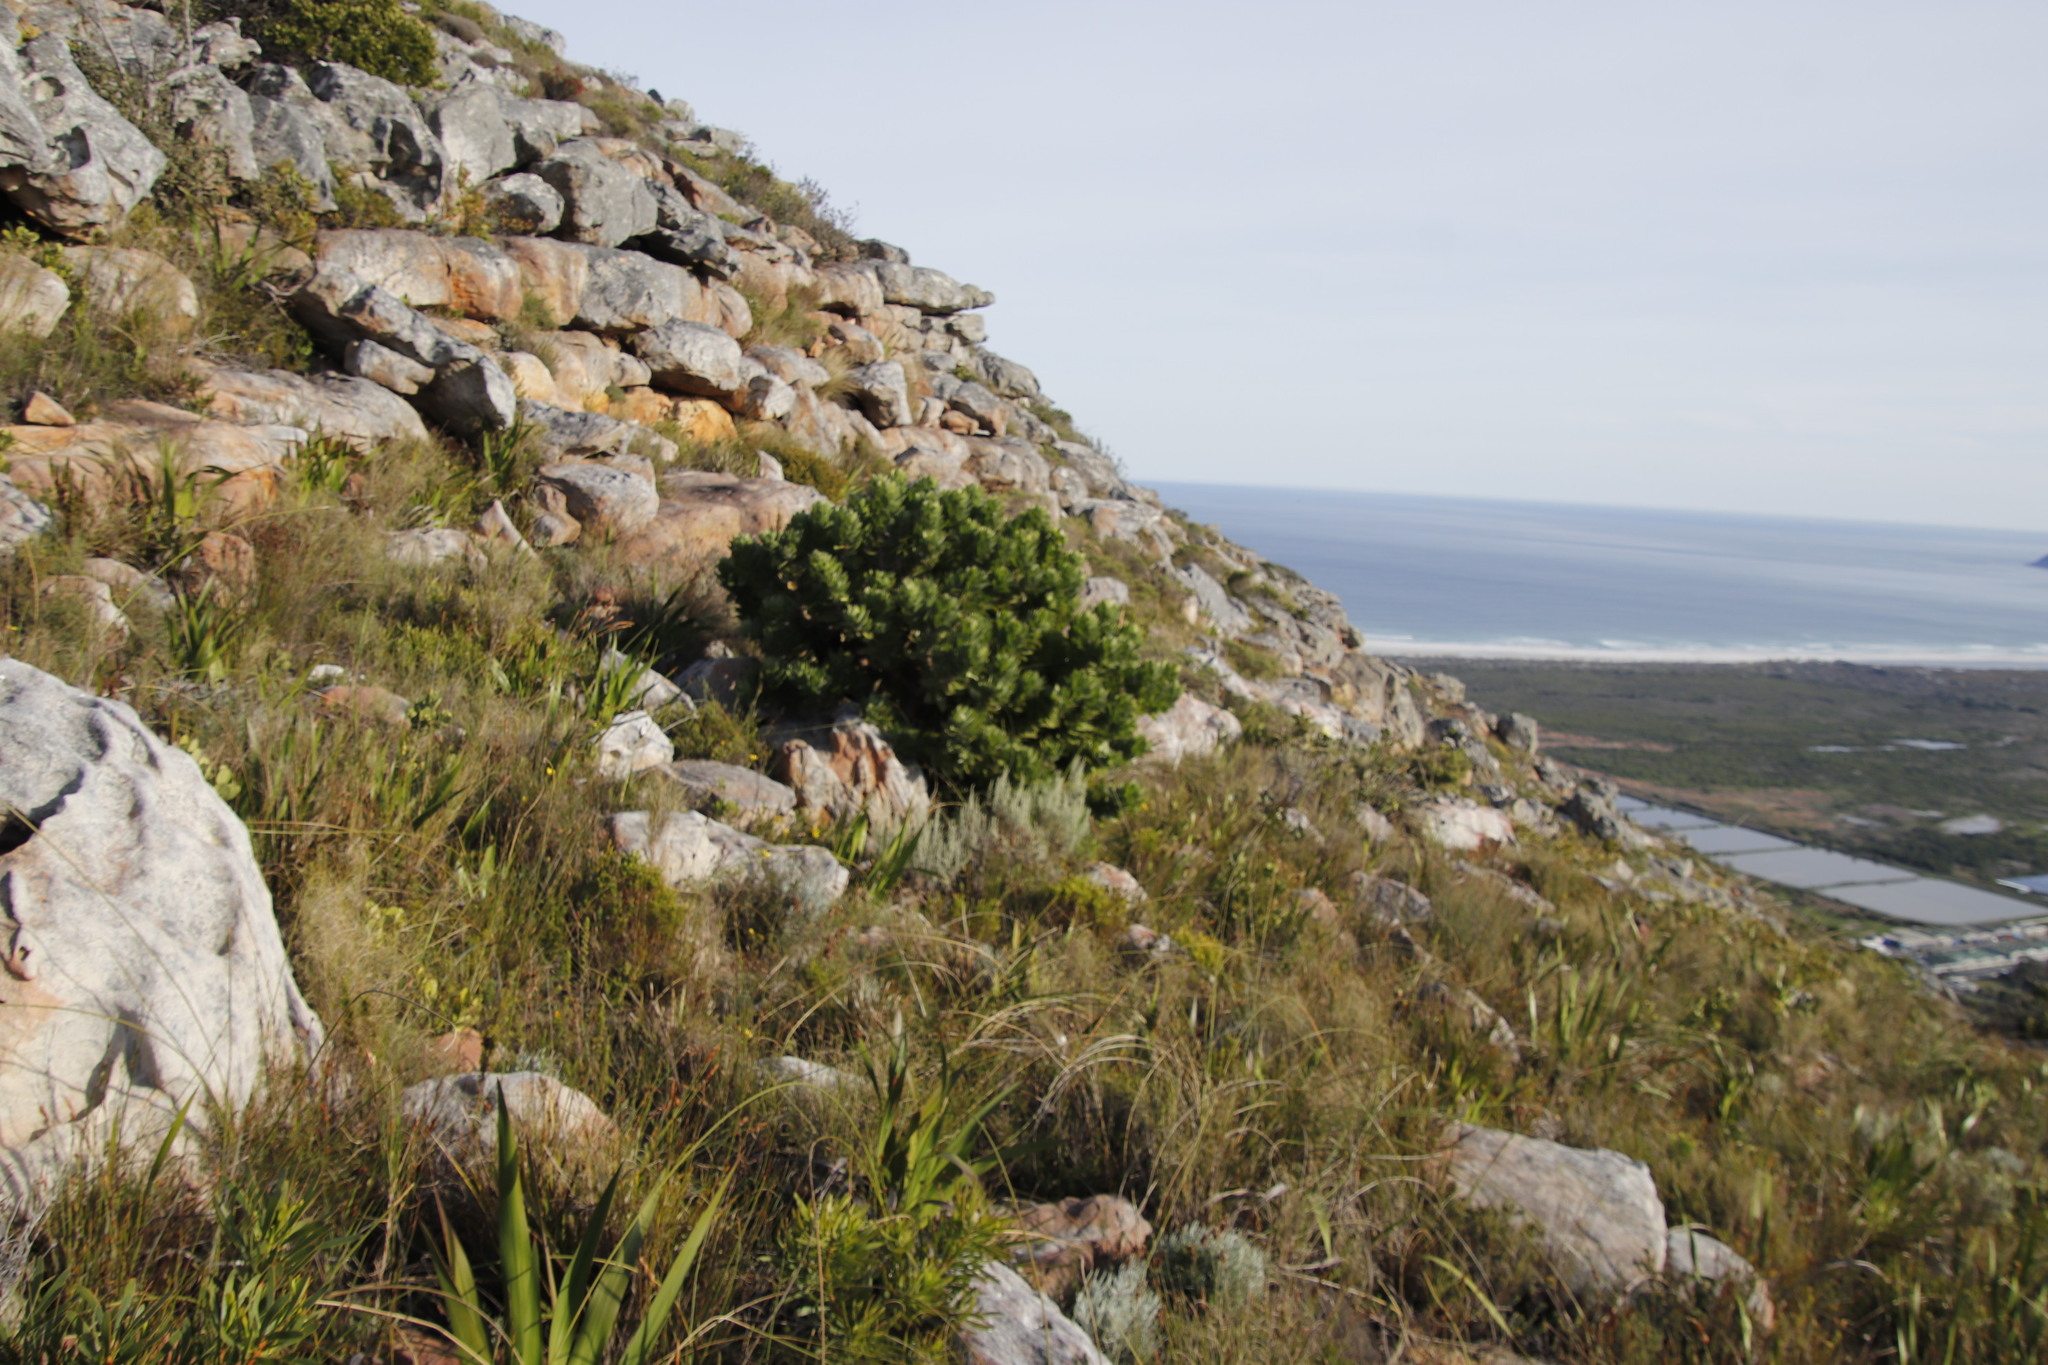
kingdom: Plantae
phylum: Tracheophyta
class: Magnoliopsida
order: Proteales
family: Proteaceae
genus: Leucospermum
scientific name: Leucospermum conocarpodendron
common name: Tree pincushion
